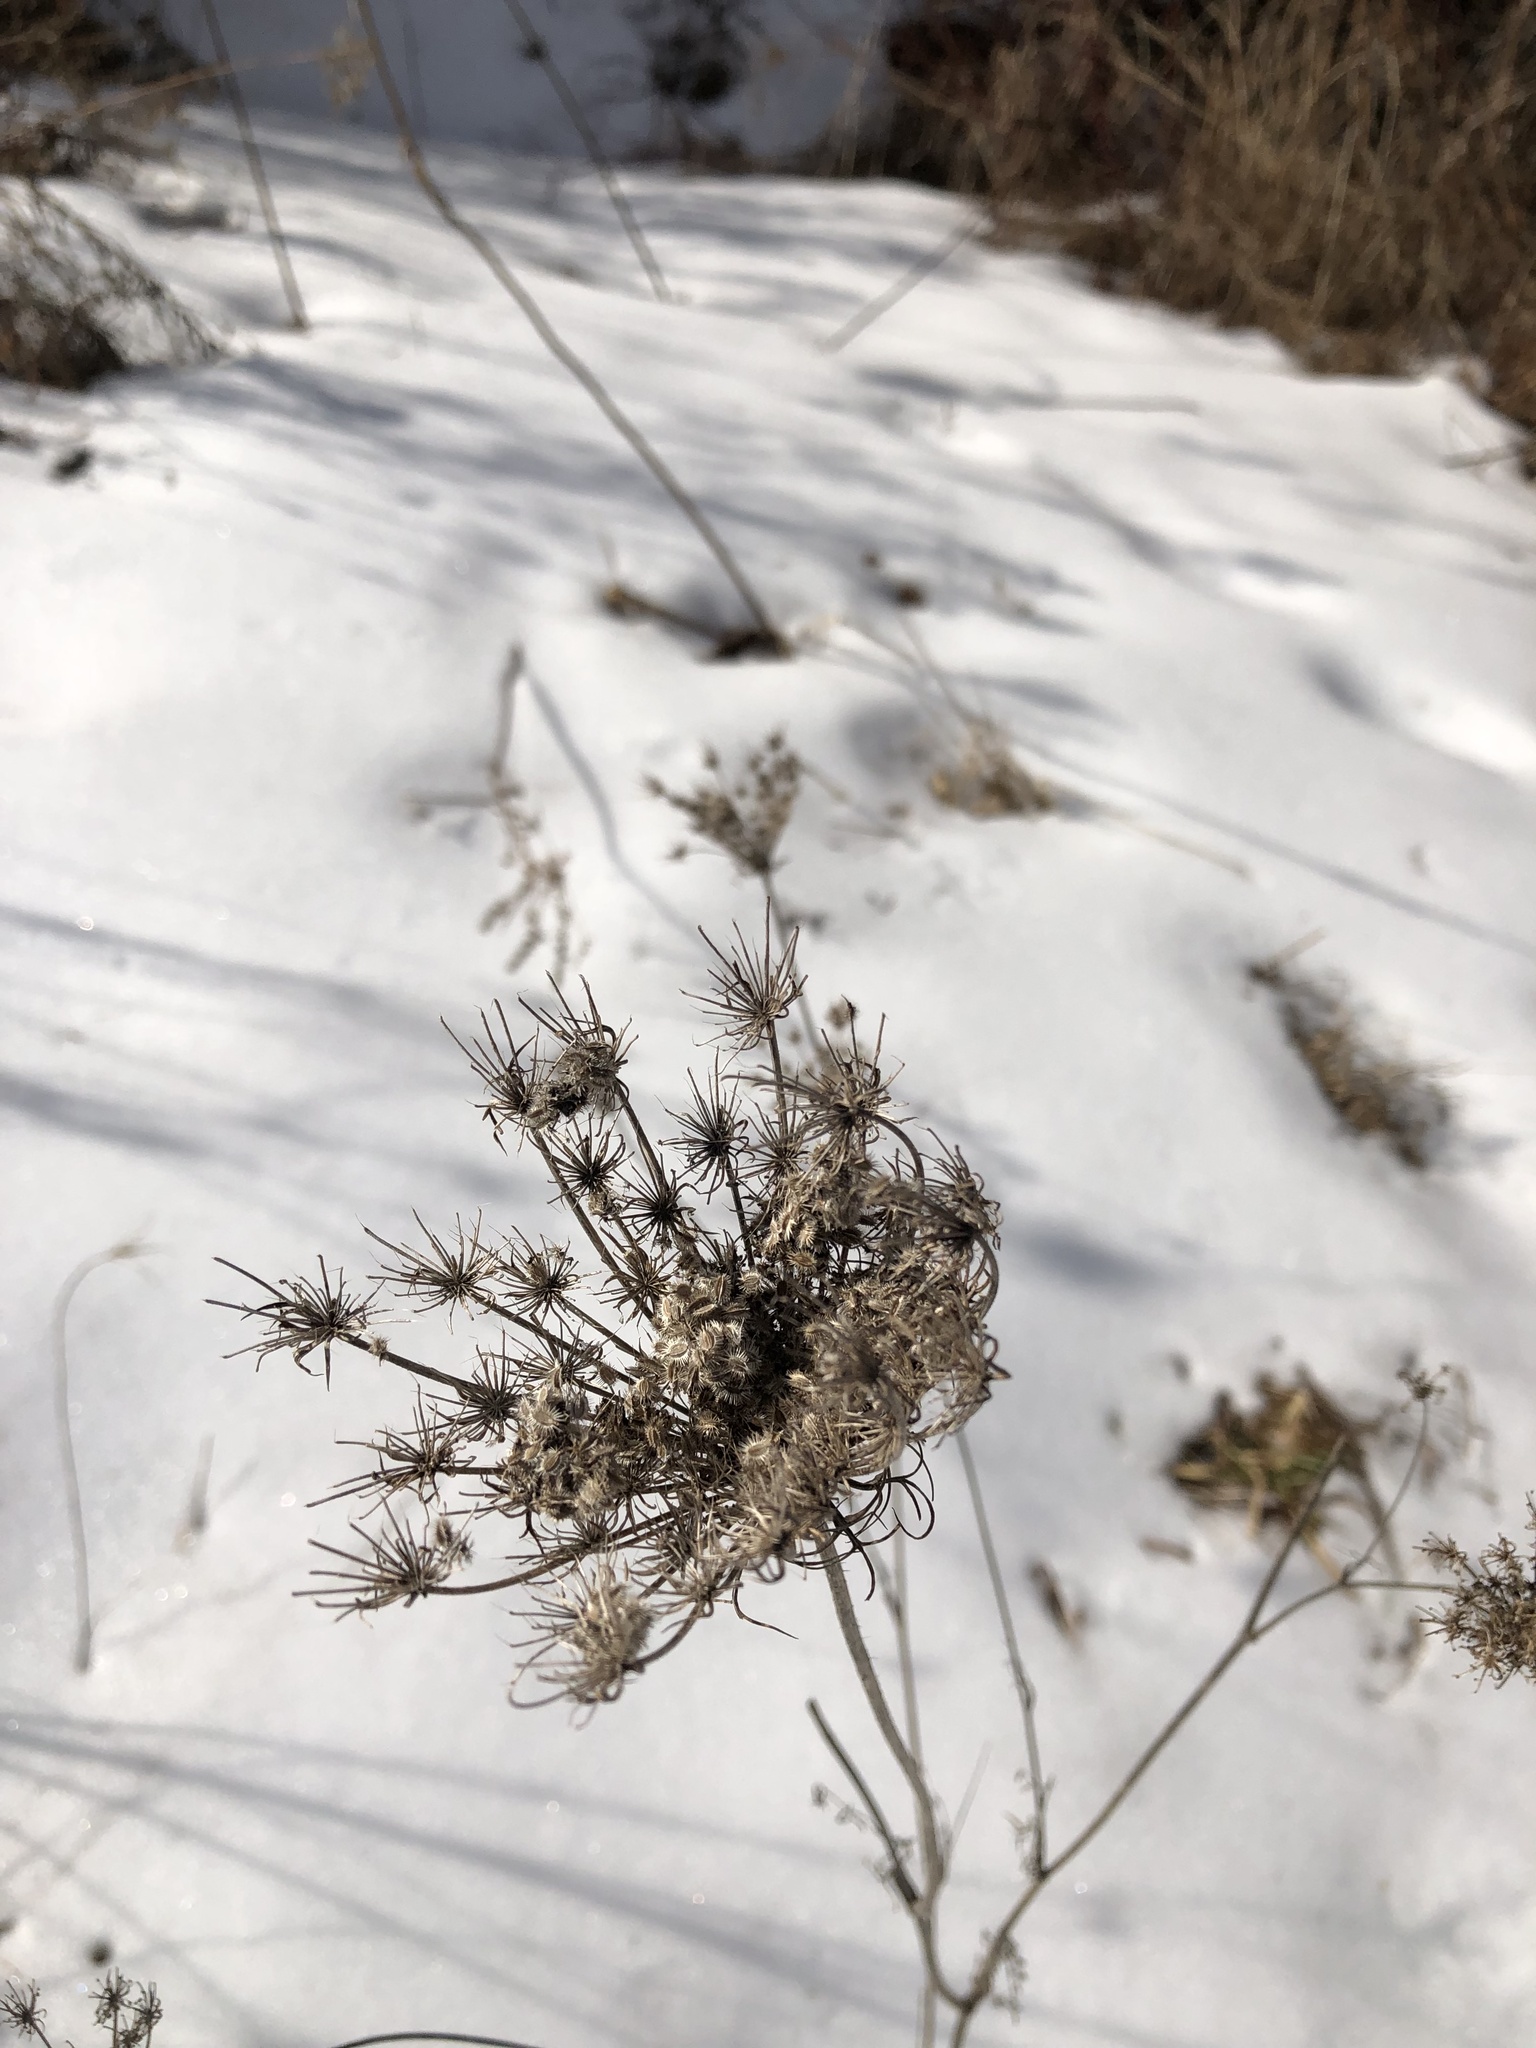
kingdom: Plantae
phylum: Tracheophyta
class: Magnoliopsida
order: Apiales
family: Apiaceae
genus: Daucus
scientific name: Daucus carota
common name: Wild carrot
